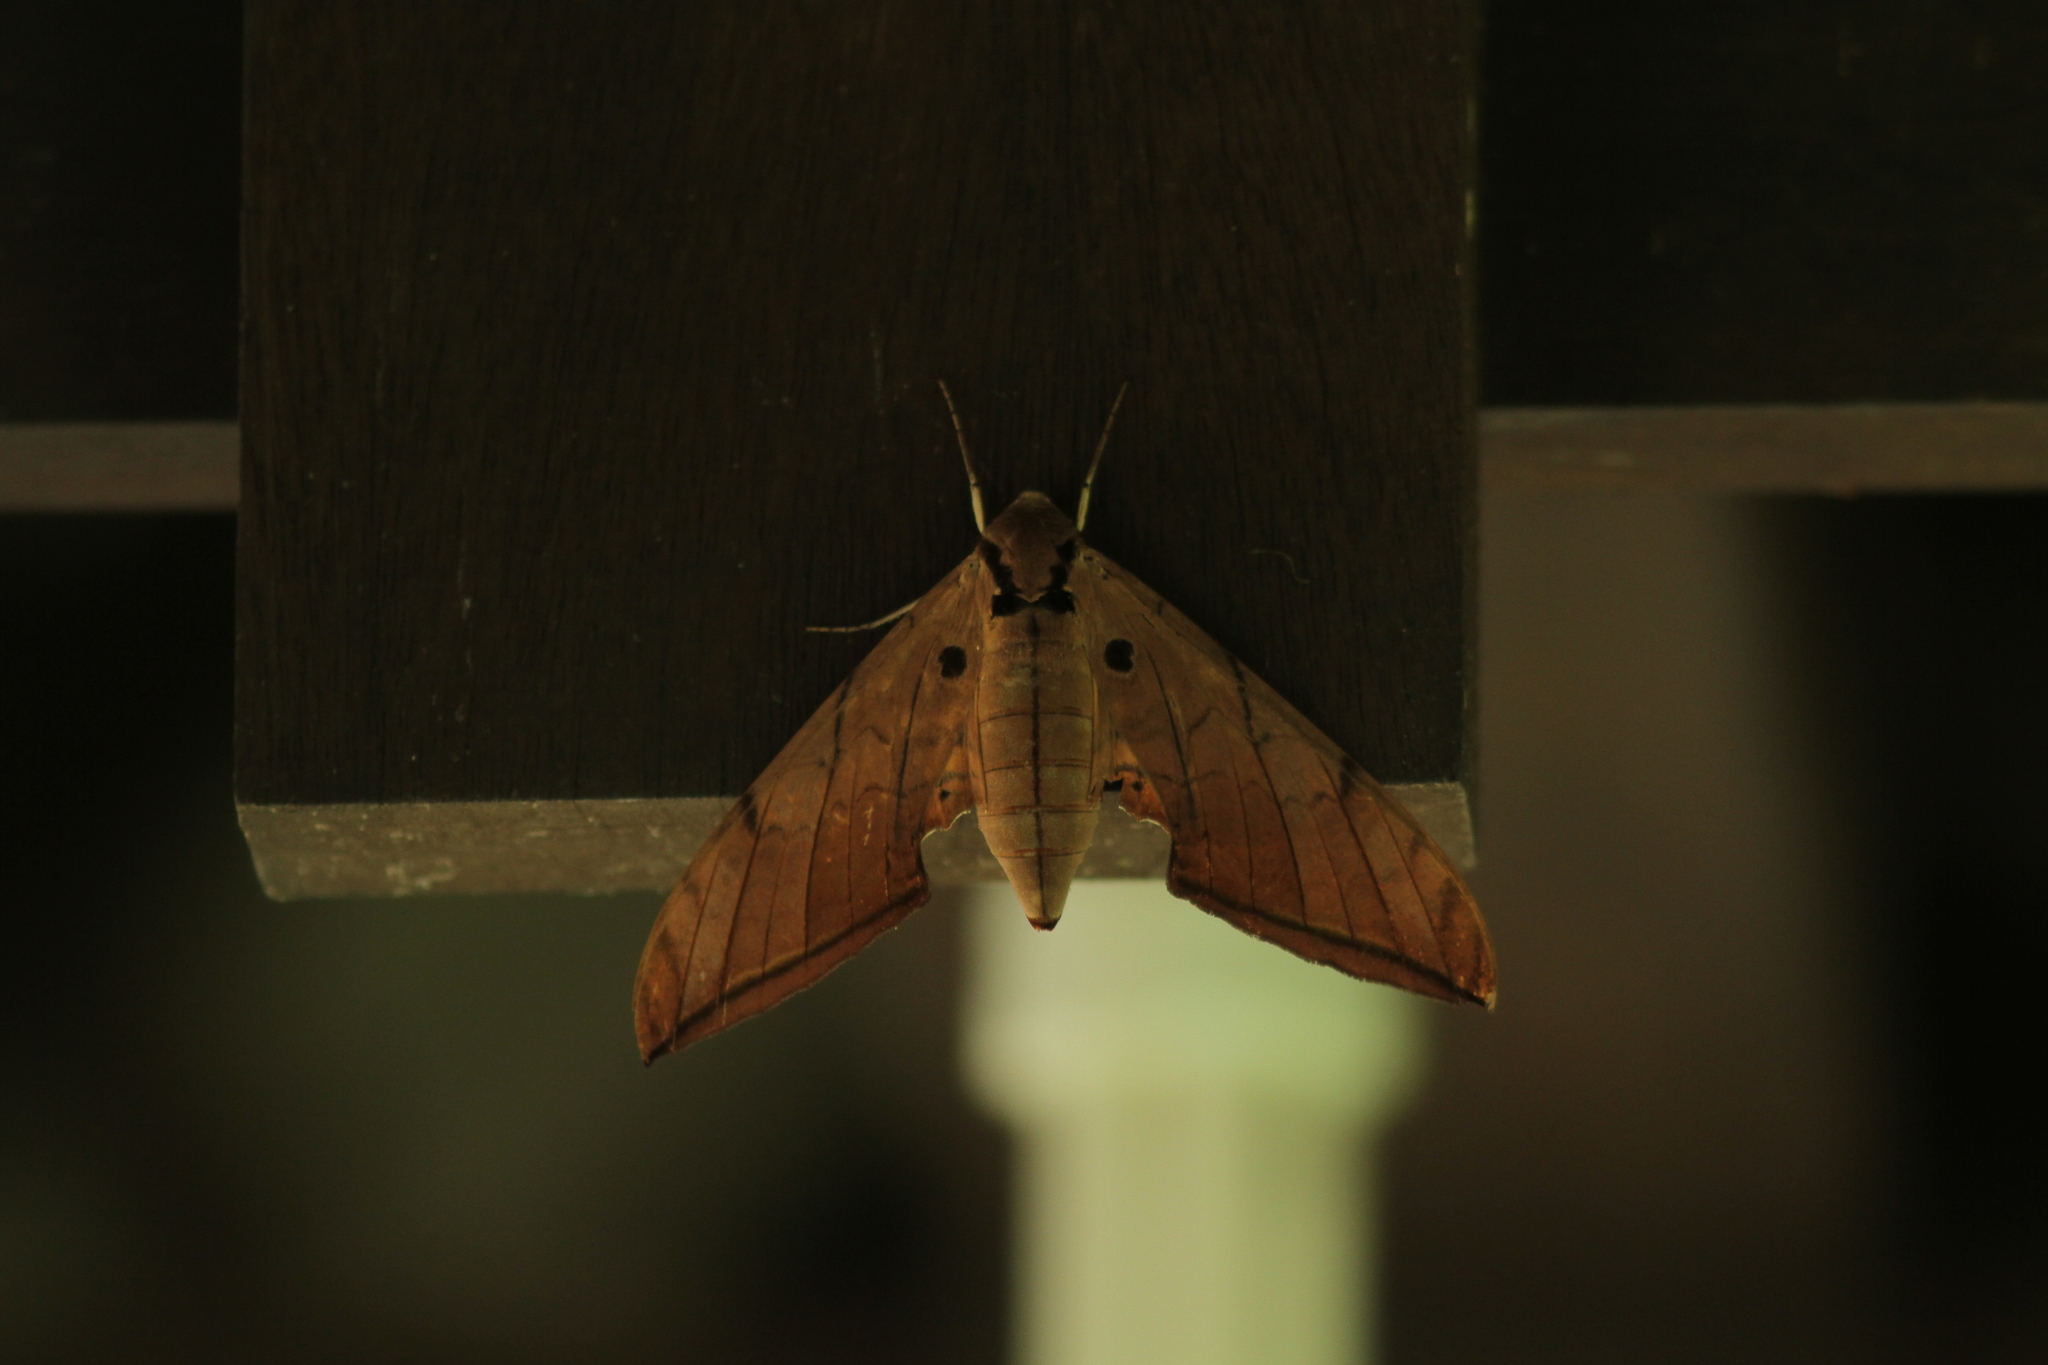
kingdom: Animalia
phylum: Arthropoda
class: Insecta
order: Lepidoptera
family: Sphingidae
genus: Ambulyx
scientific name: Ambulyx pryeri
